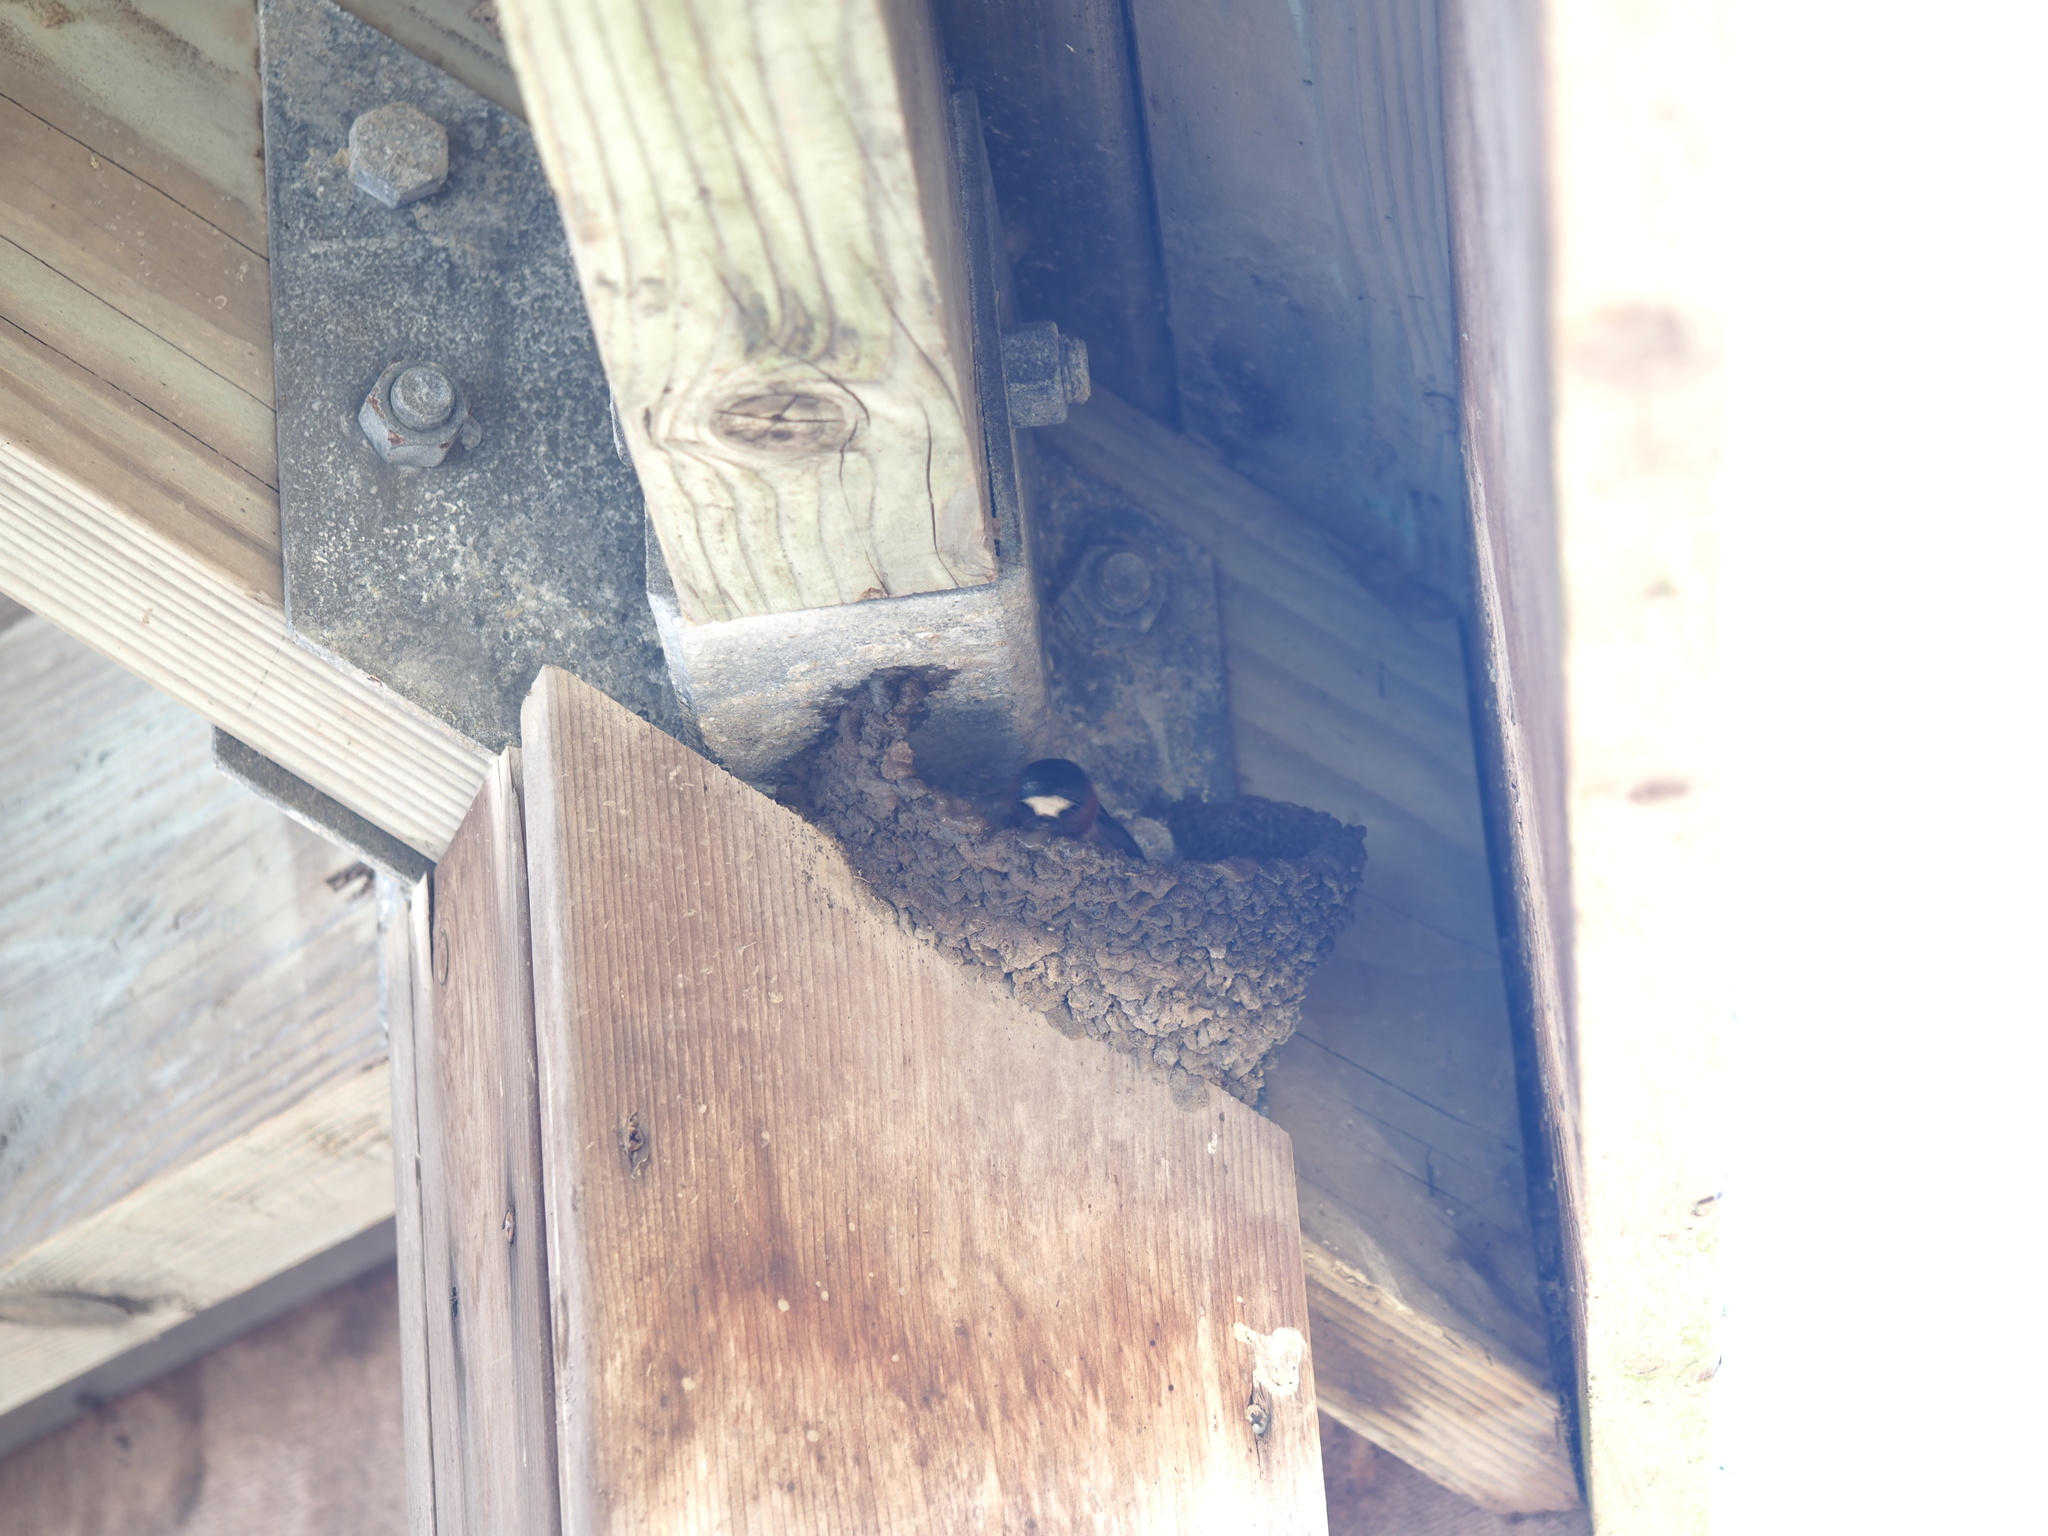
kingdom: Animalia
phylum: Chordata
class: Aves
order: Passeriformes
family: Hirundinidae
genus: Petrochelidon
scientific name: Petrochelidon pyrrhonota
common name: American cliff swallow
